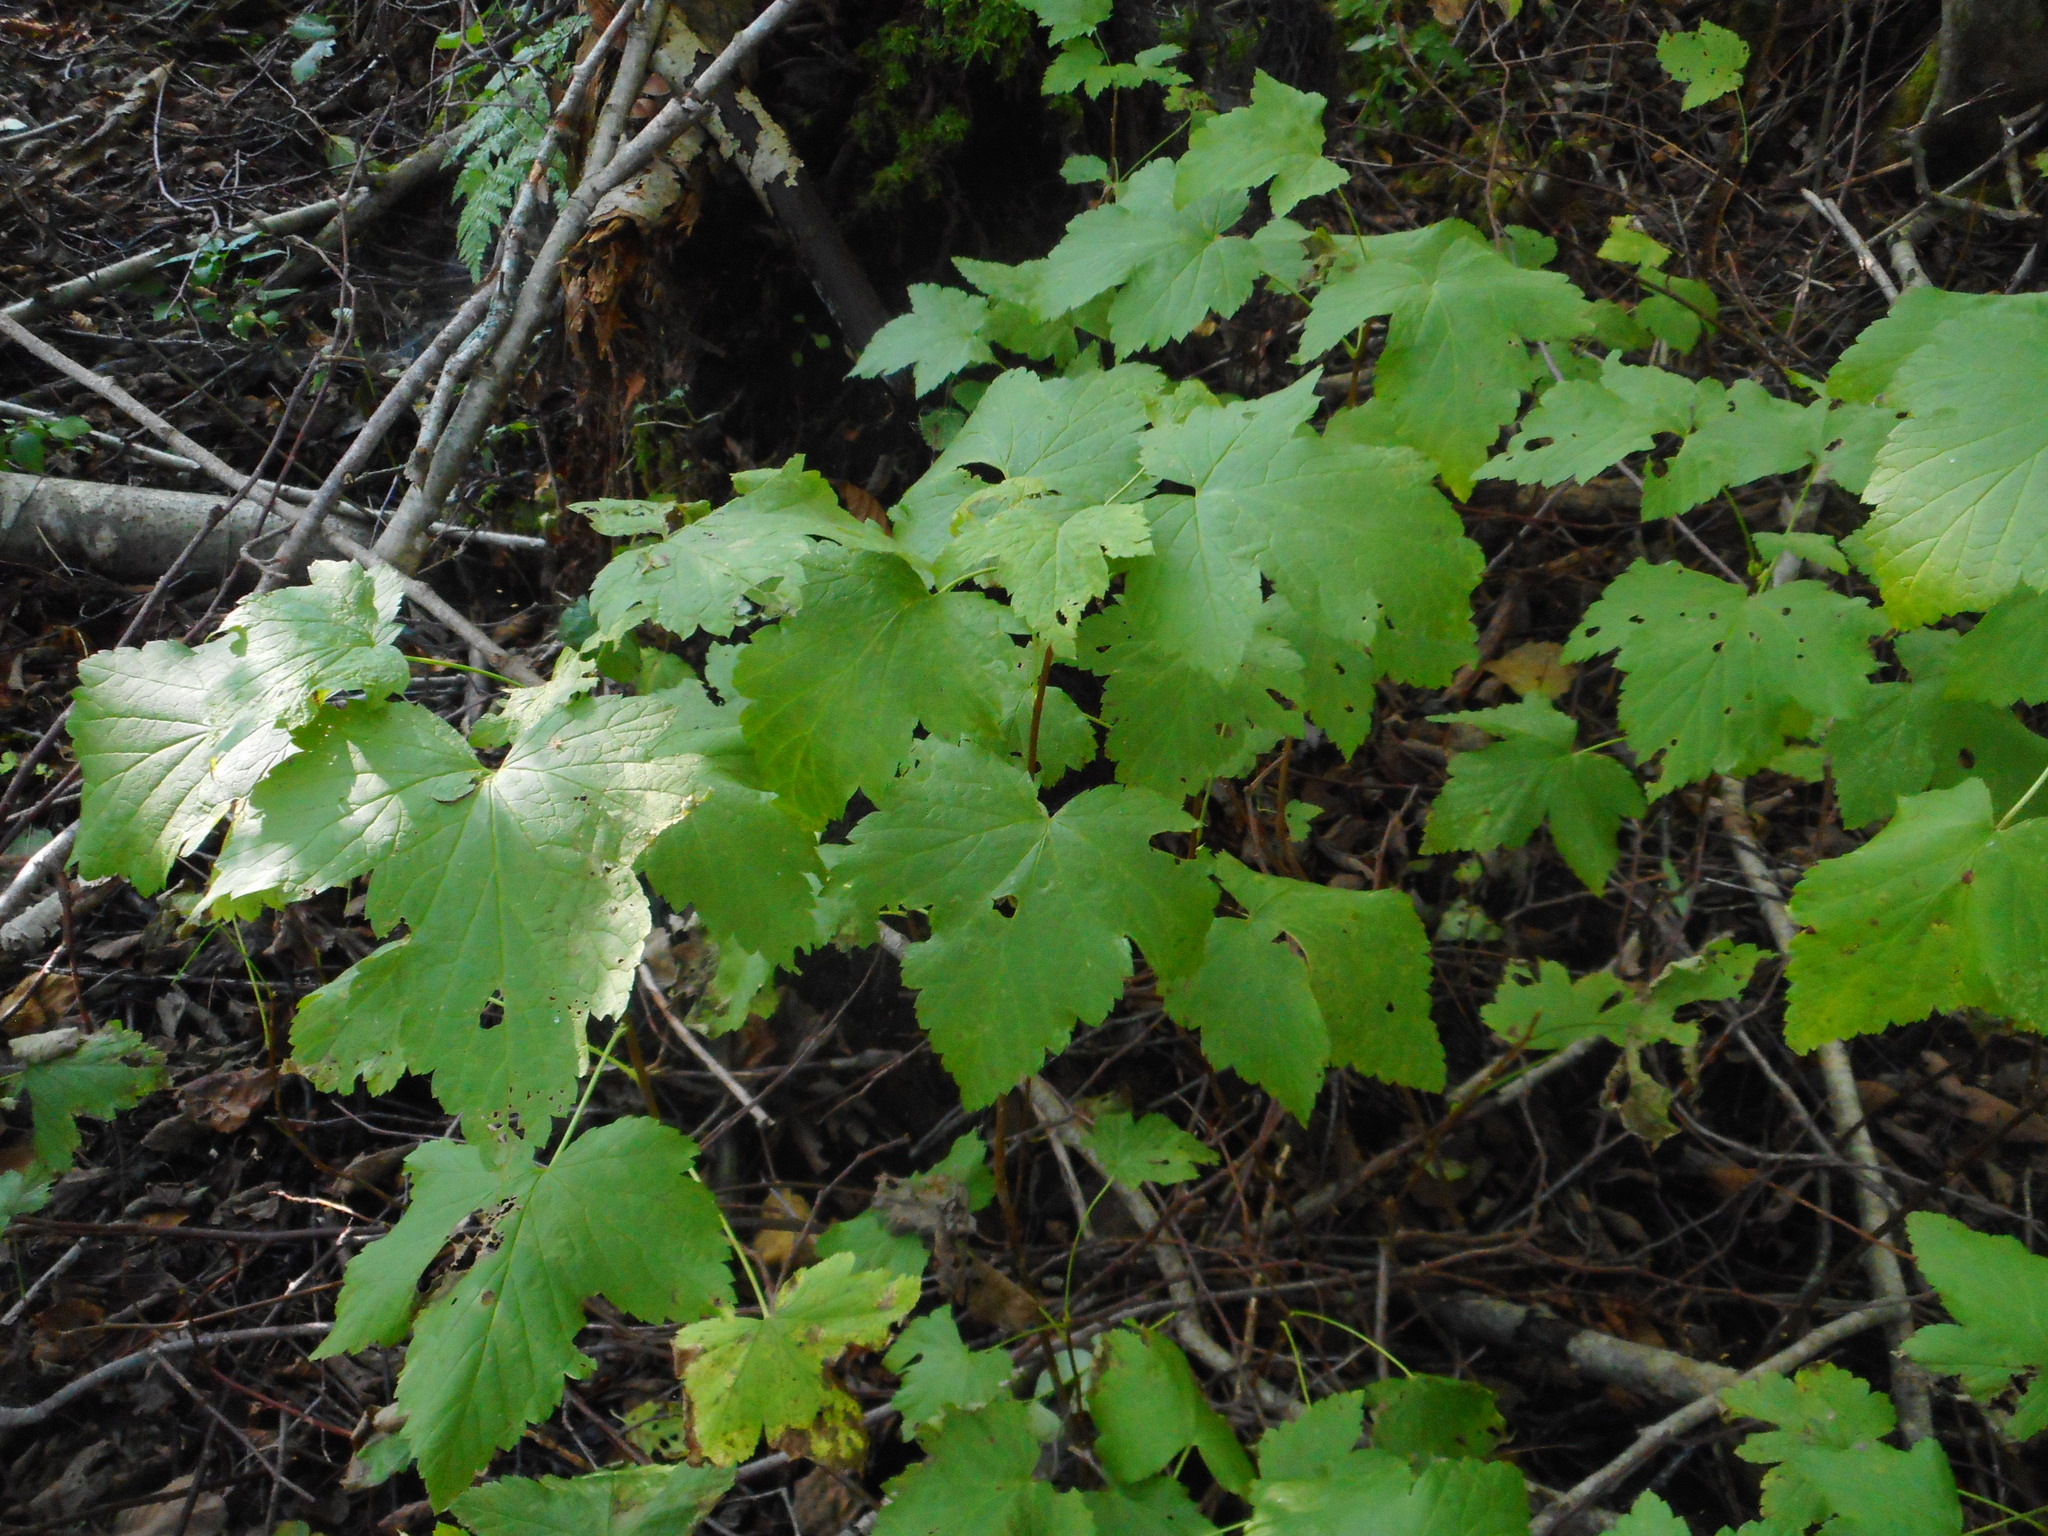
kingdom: Plantae
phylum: Tracheophyta
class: Magnoliopsida
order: Saxifragales
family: Grossulariaceae
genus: Ribes
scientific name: Ribes nigrum
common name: Black currant
